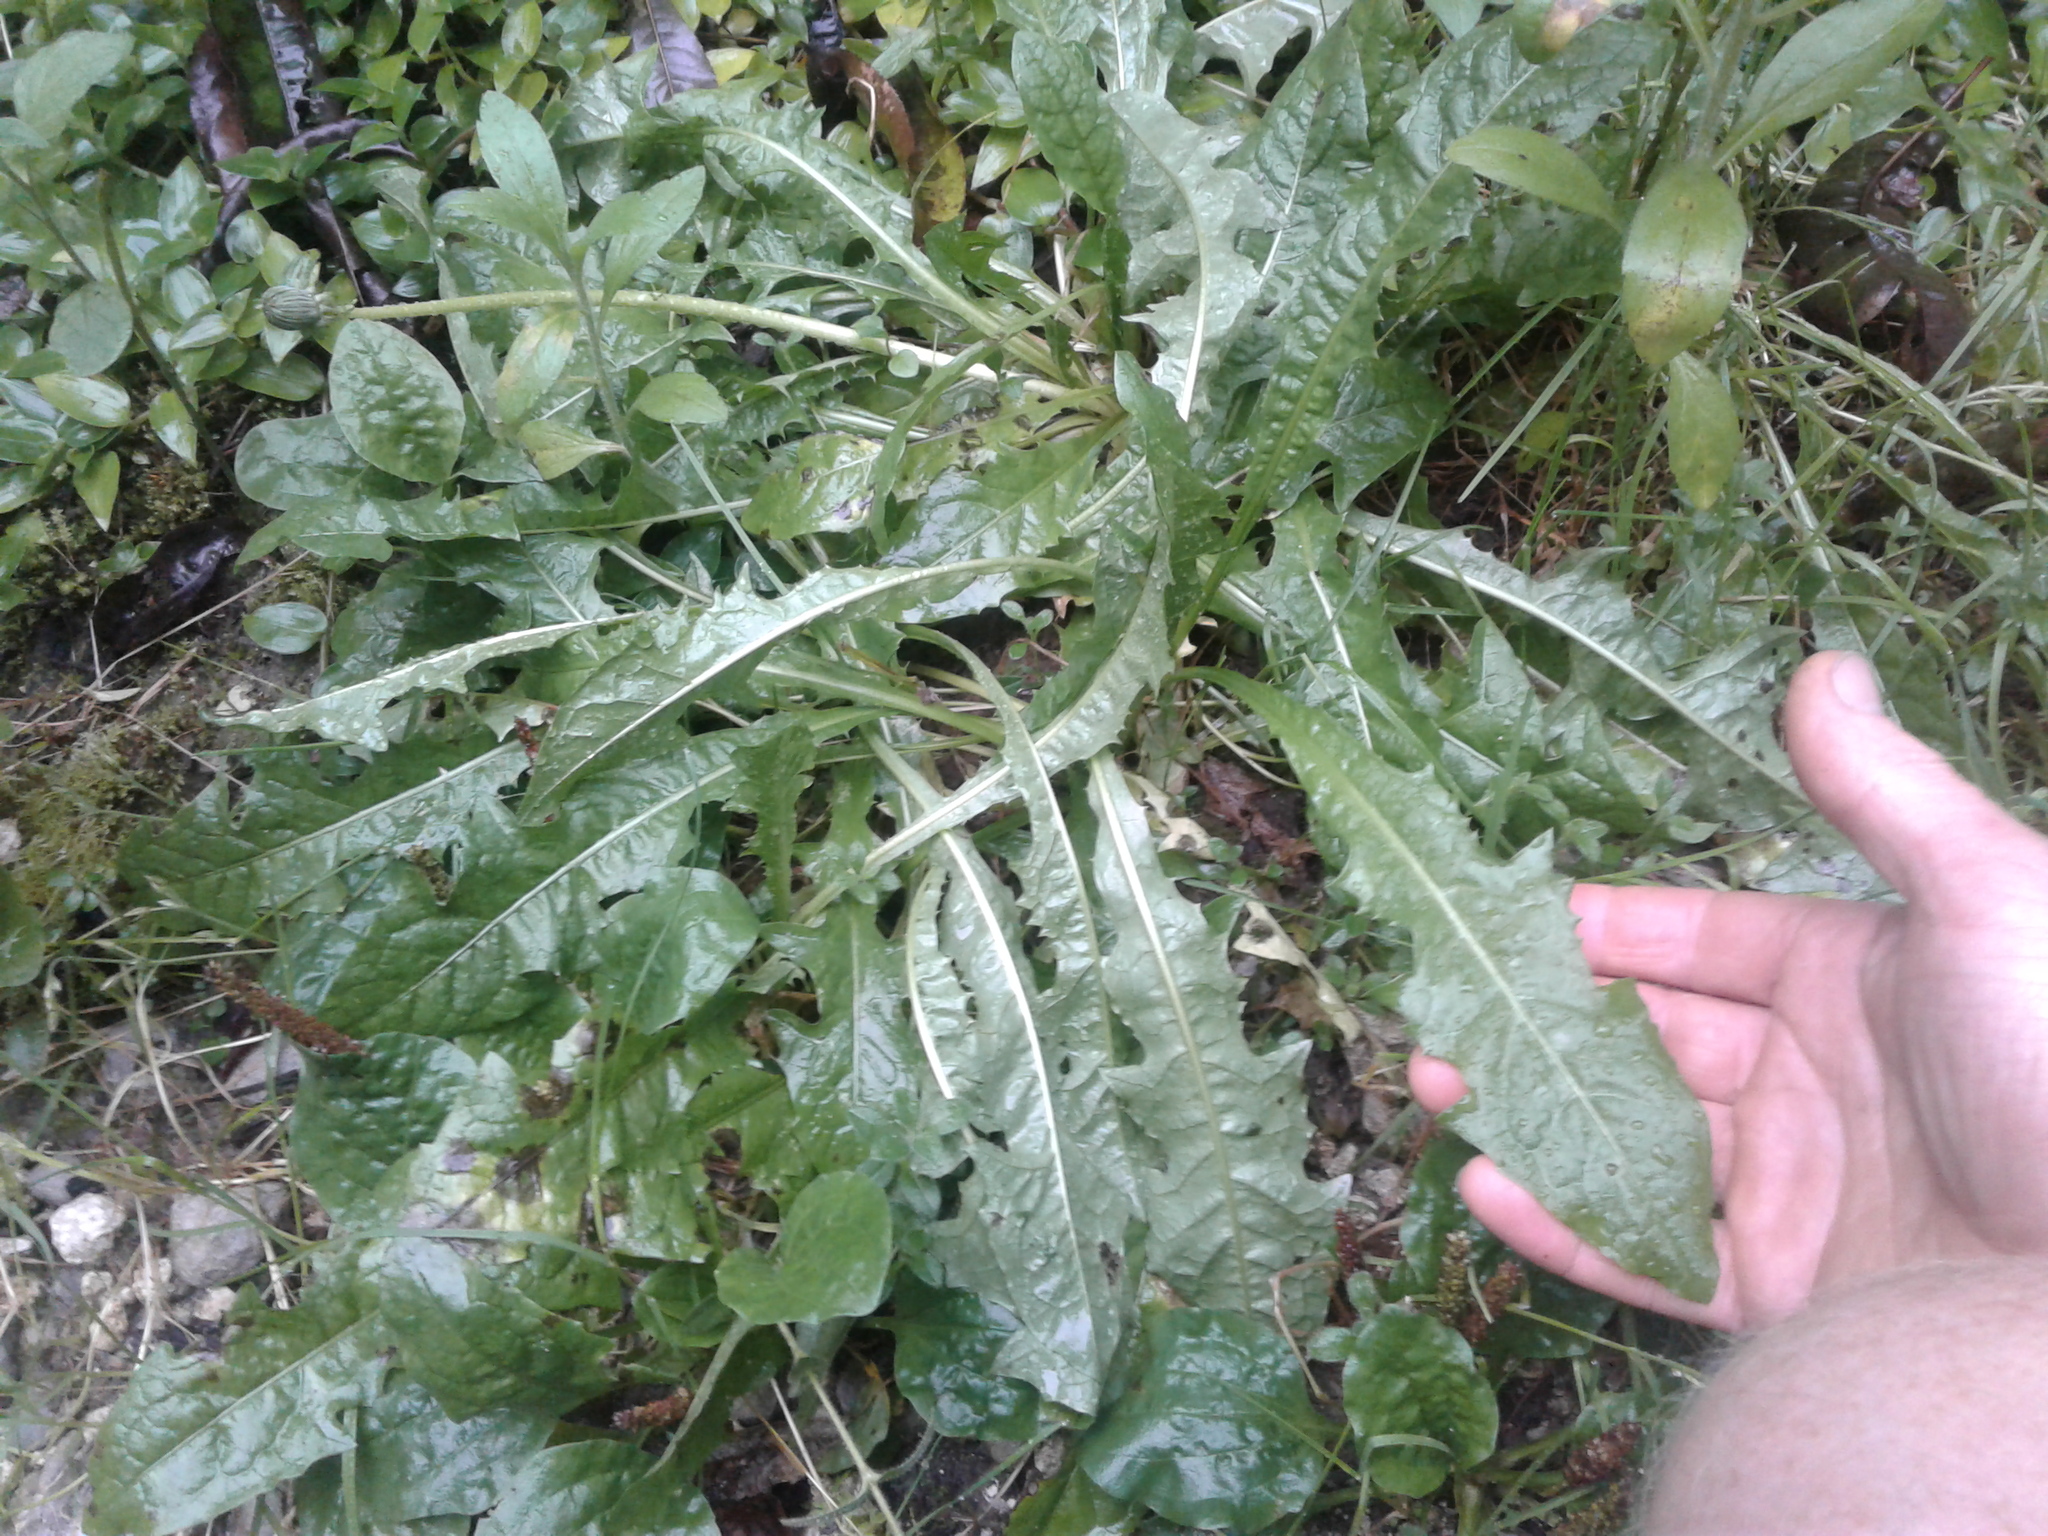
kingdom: Plantae
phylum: Tracheophyta
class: Magnoliopsida
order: Asterales
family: Asteraceae
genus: Taraxacum
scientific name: Taraxacum officinale
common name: Common dandelion
